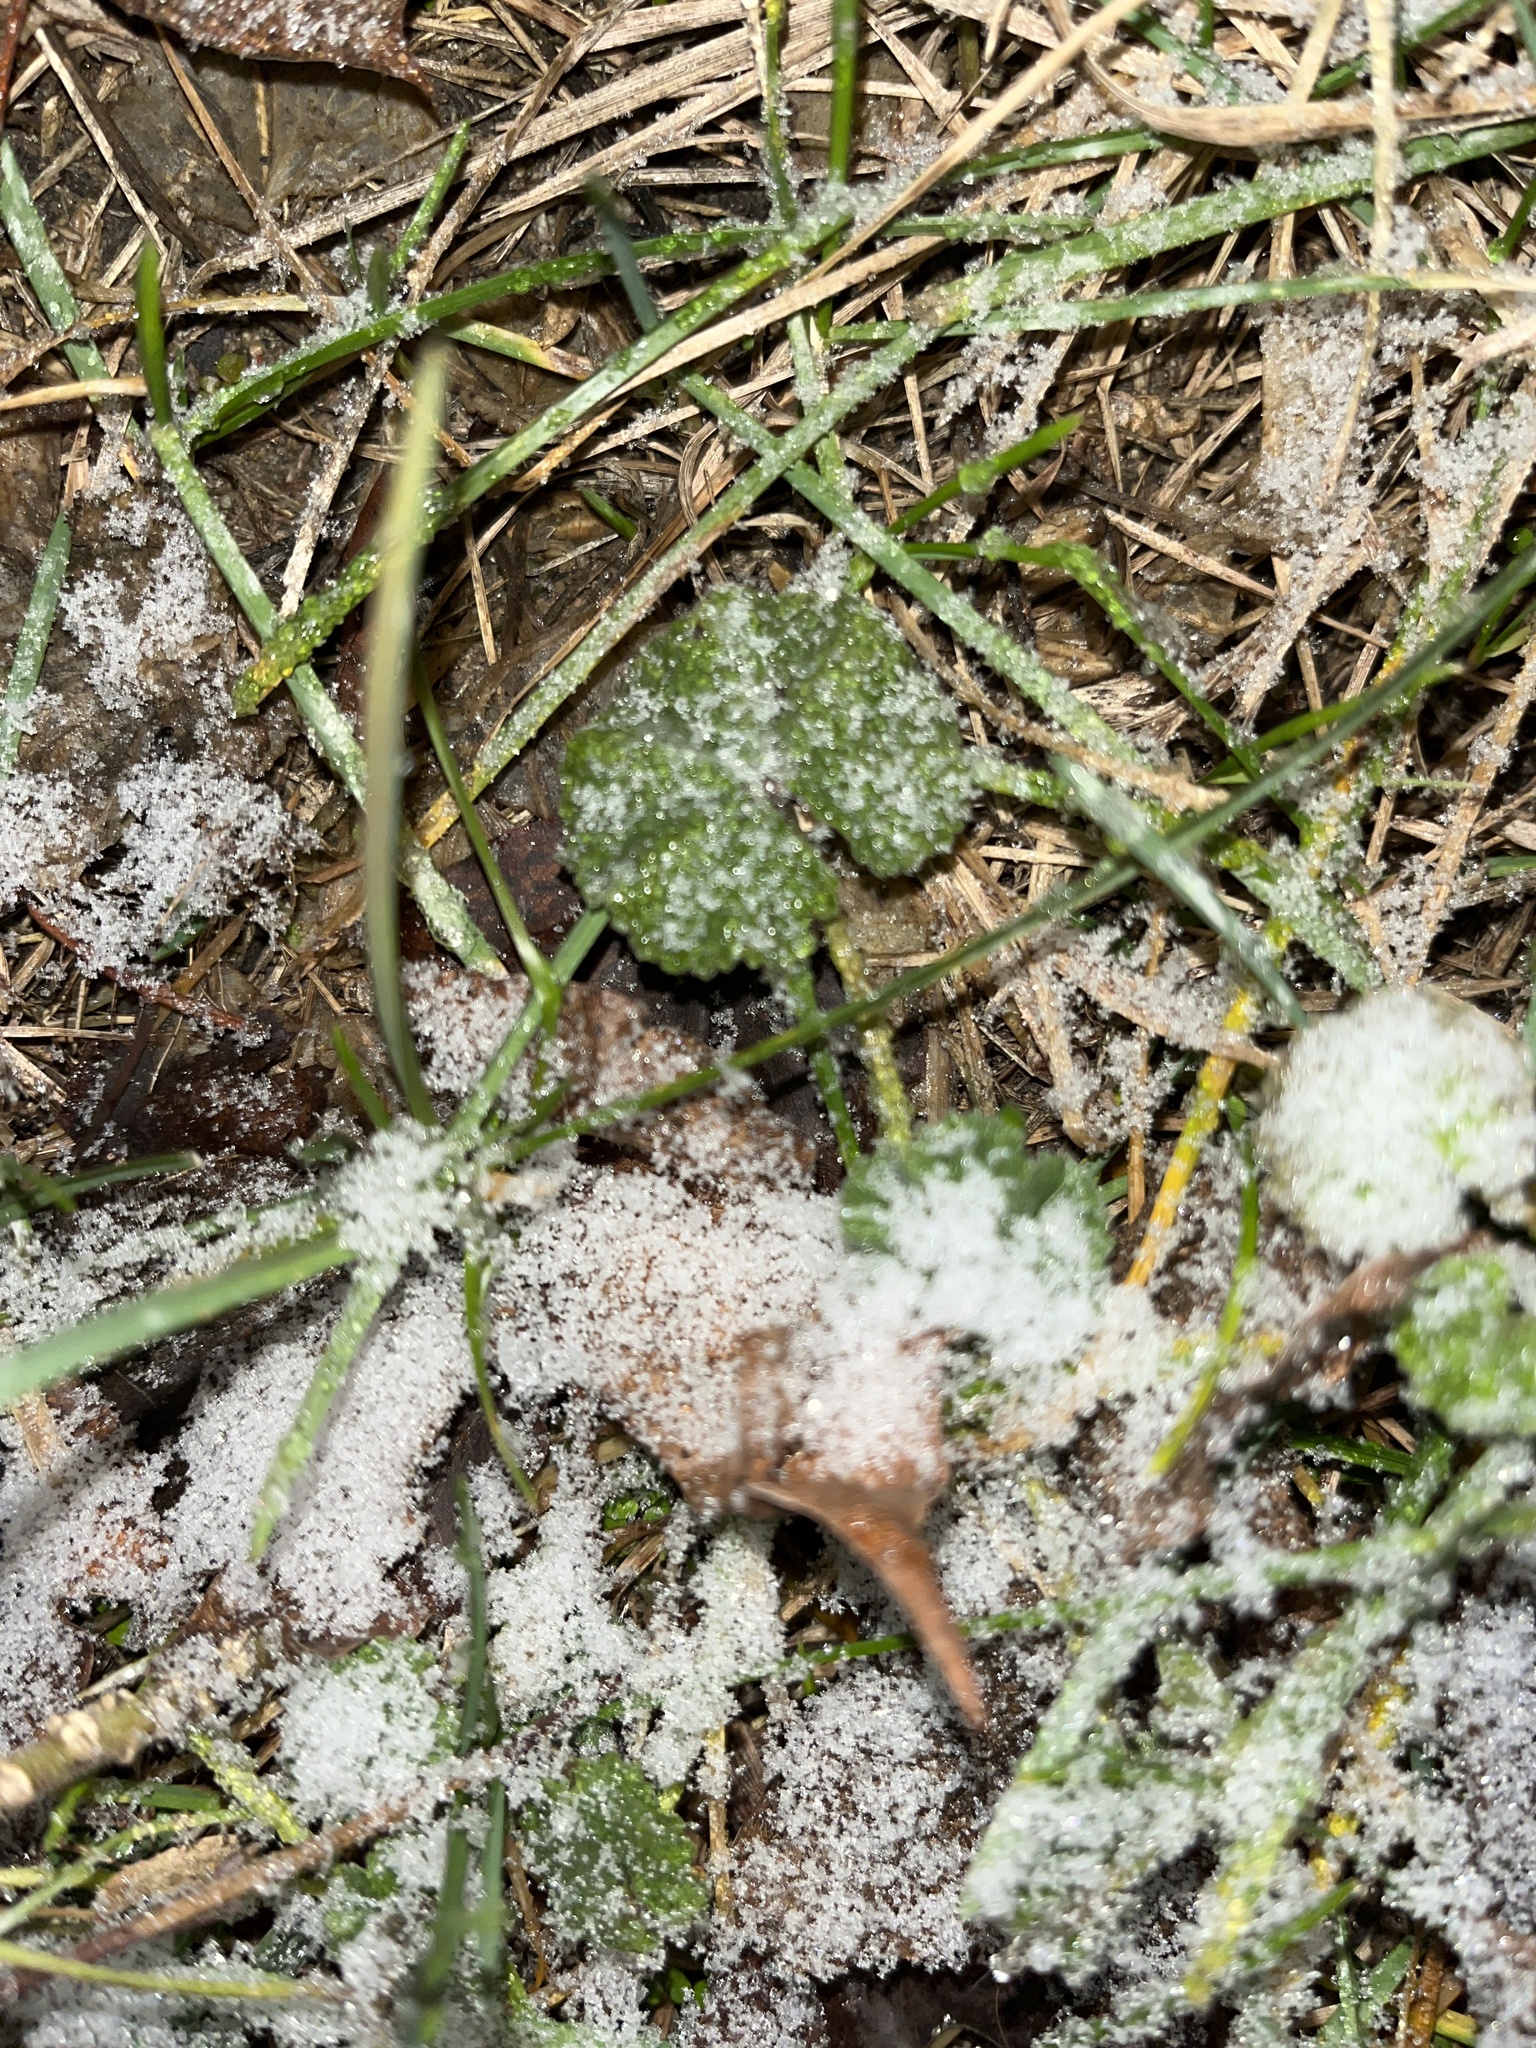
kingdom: Plantae
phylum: Tracheophyta
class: Magnoliopsida
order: Lamiales
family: Lamiaceae
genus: Glechoma
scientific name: Glechoma hederacea
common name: Ground ivy
